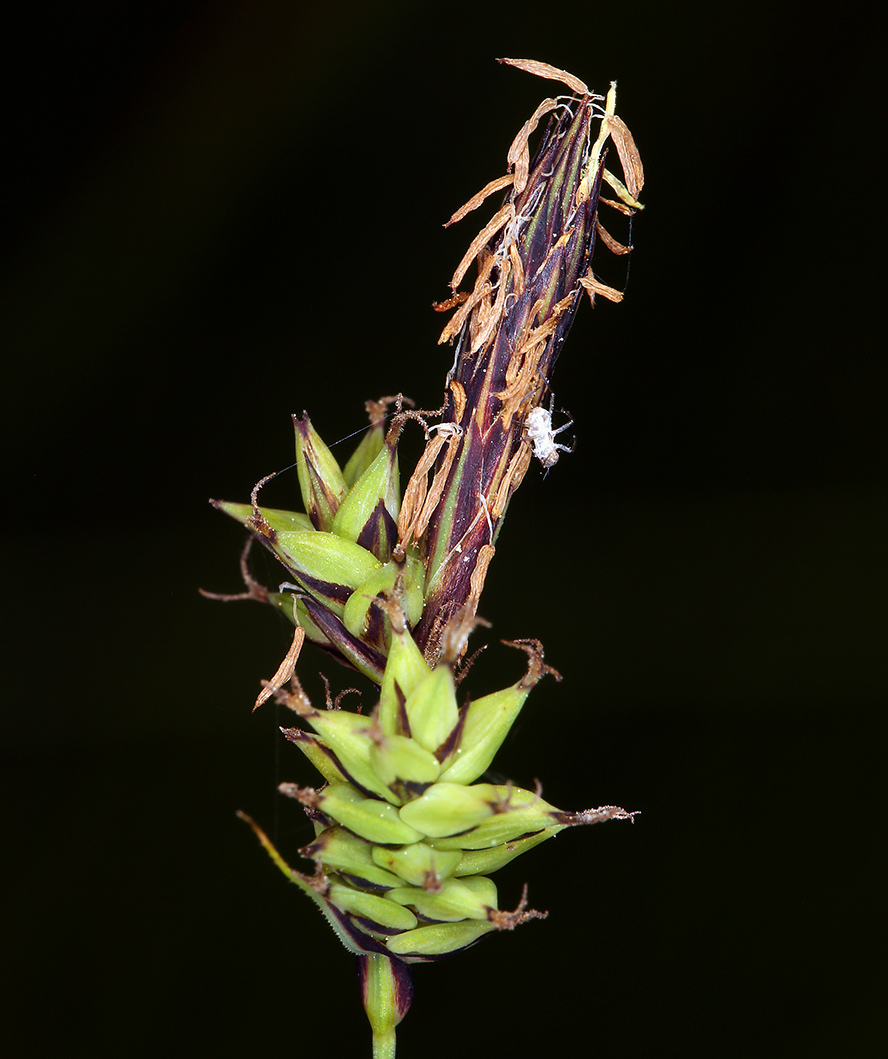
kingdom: Plantae
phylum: Tracheophyta
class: Liliopsida
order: Poales
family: Cyperaceae
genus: Carex
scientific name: Carex serratodens
